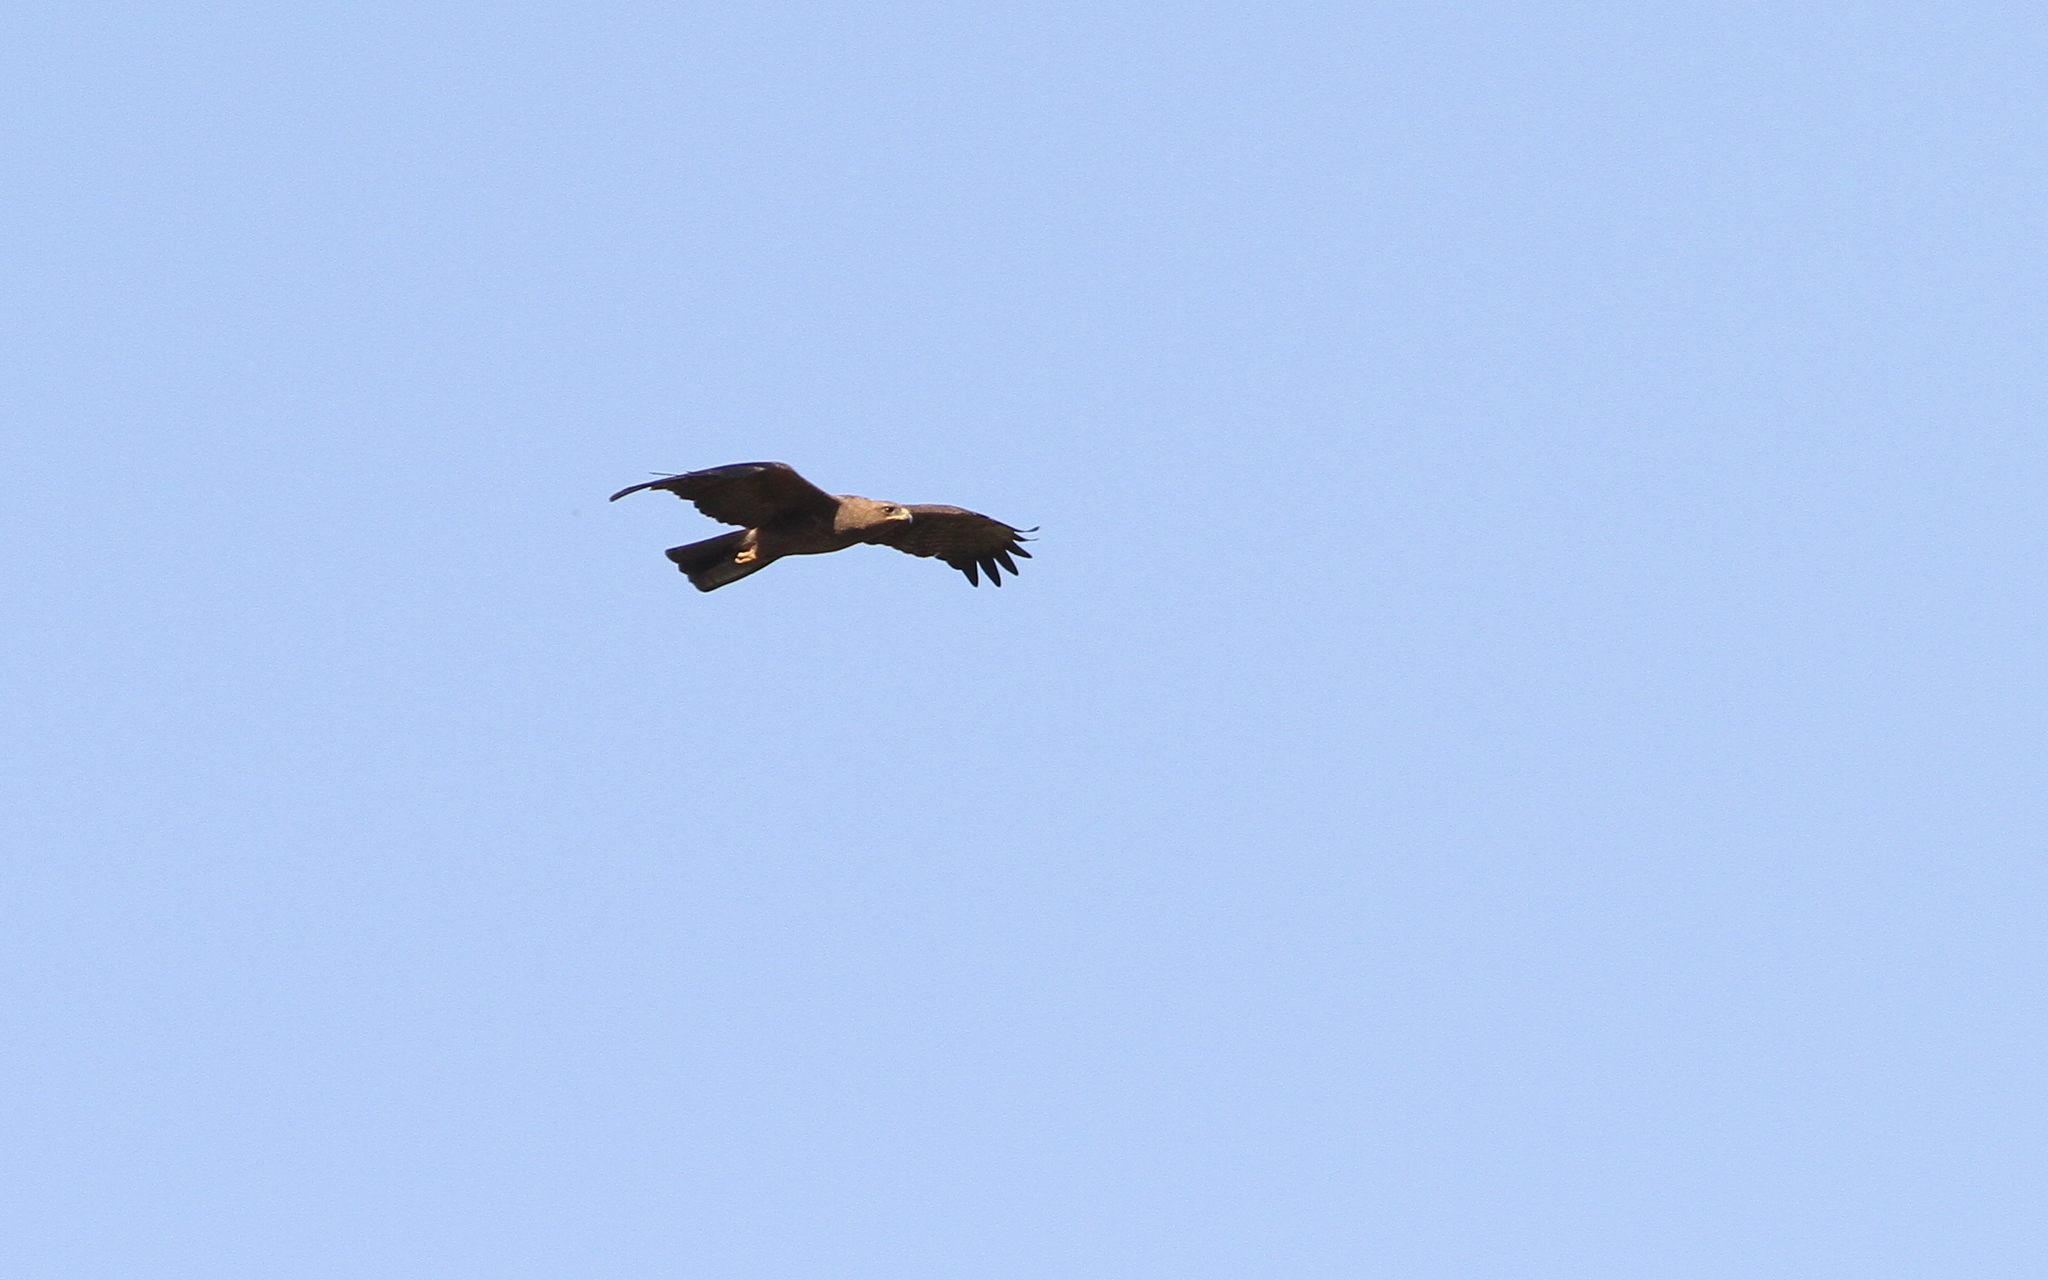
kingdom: Animalia
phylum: Chordata
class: Aves
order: Accipitriformes
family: Accipitridae
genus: Hieraaetus
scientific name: Hieraaetus wahlbergi
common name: Wahlberg's eagle
